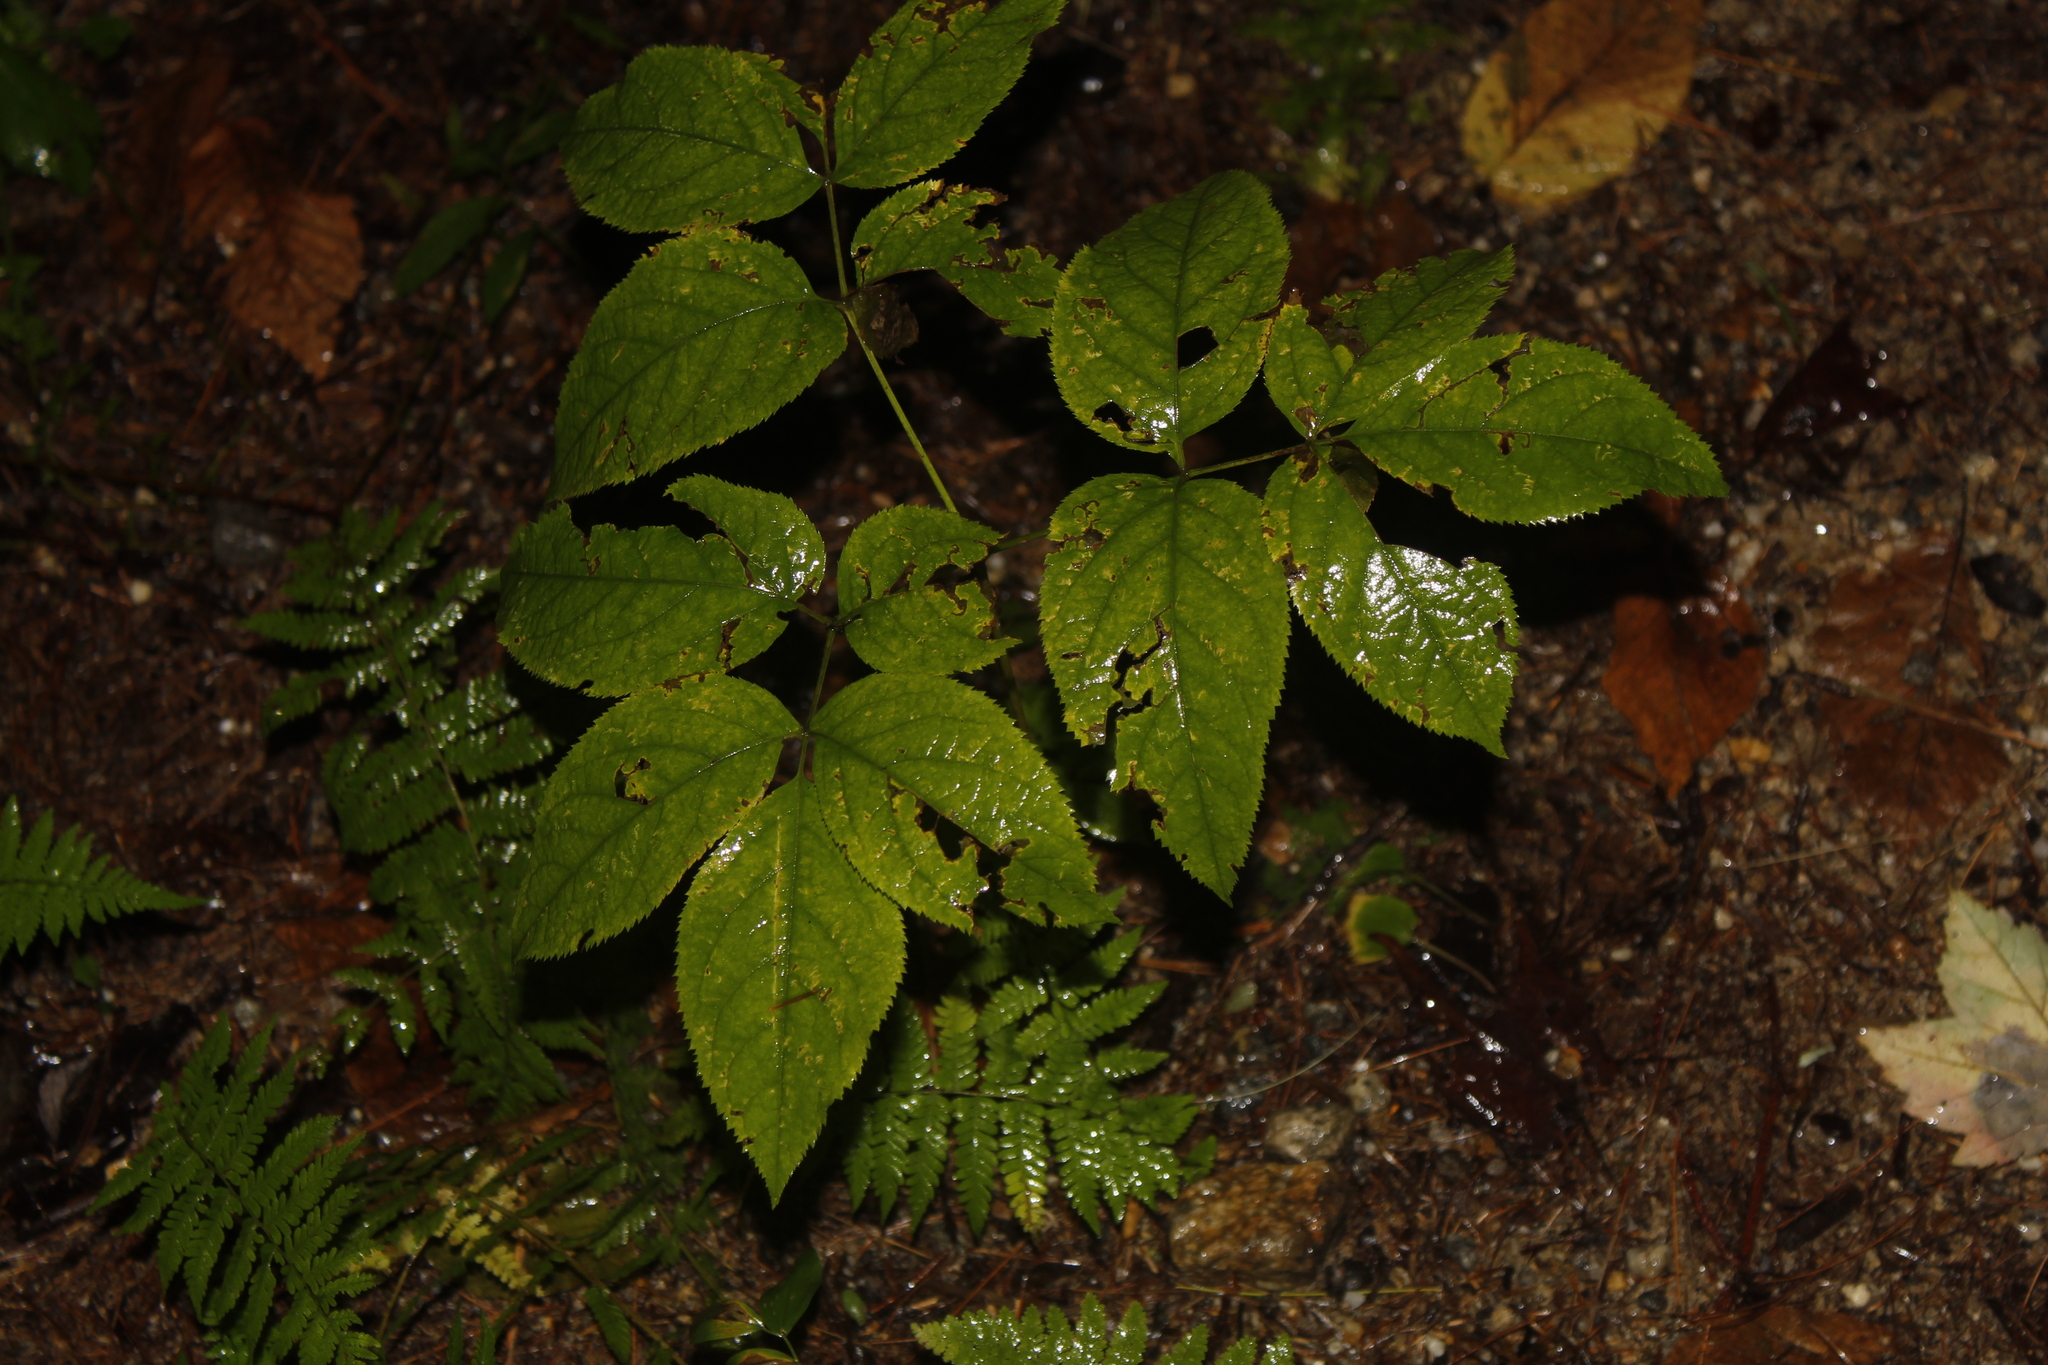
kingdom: Plantae
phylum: Tracheophyta
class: Magnoliopsida
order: Apiales
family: Araliaceae
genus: Aralia
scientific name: Aralia nudicaulis
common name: Wild sarsaparilla
